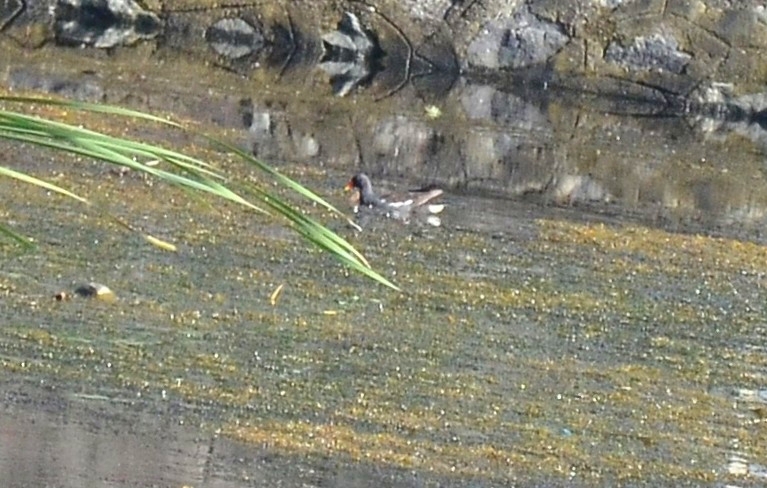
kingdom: Animalia
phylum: Chordata
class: Aves
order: Gruiformes
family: Rallidae
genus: Gallinula
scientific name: Gallinula chloropus
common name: Common moorhen
